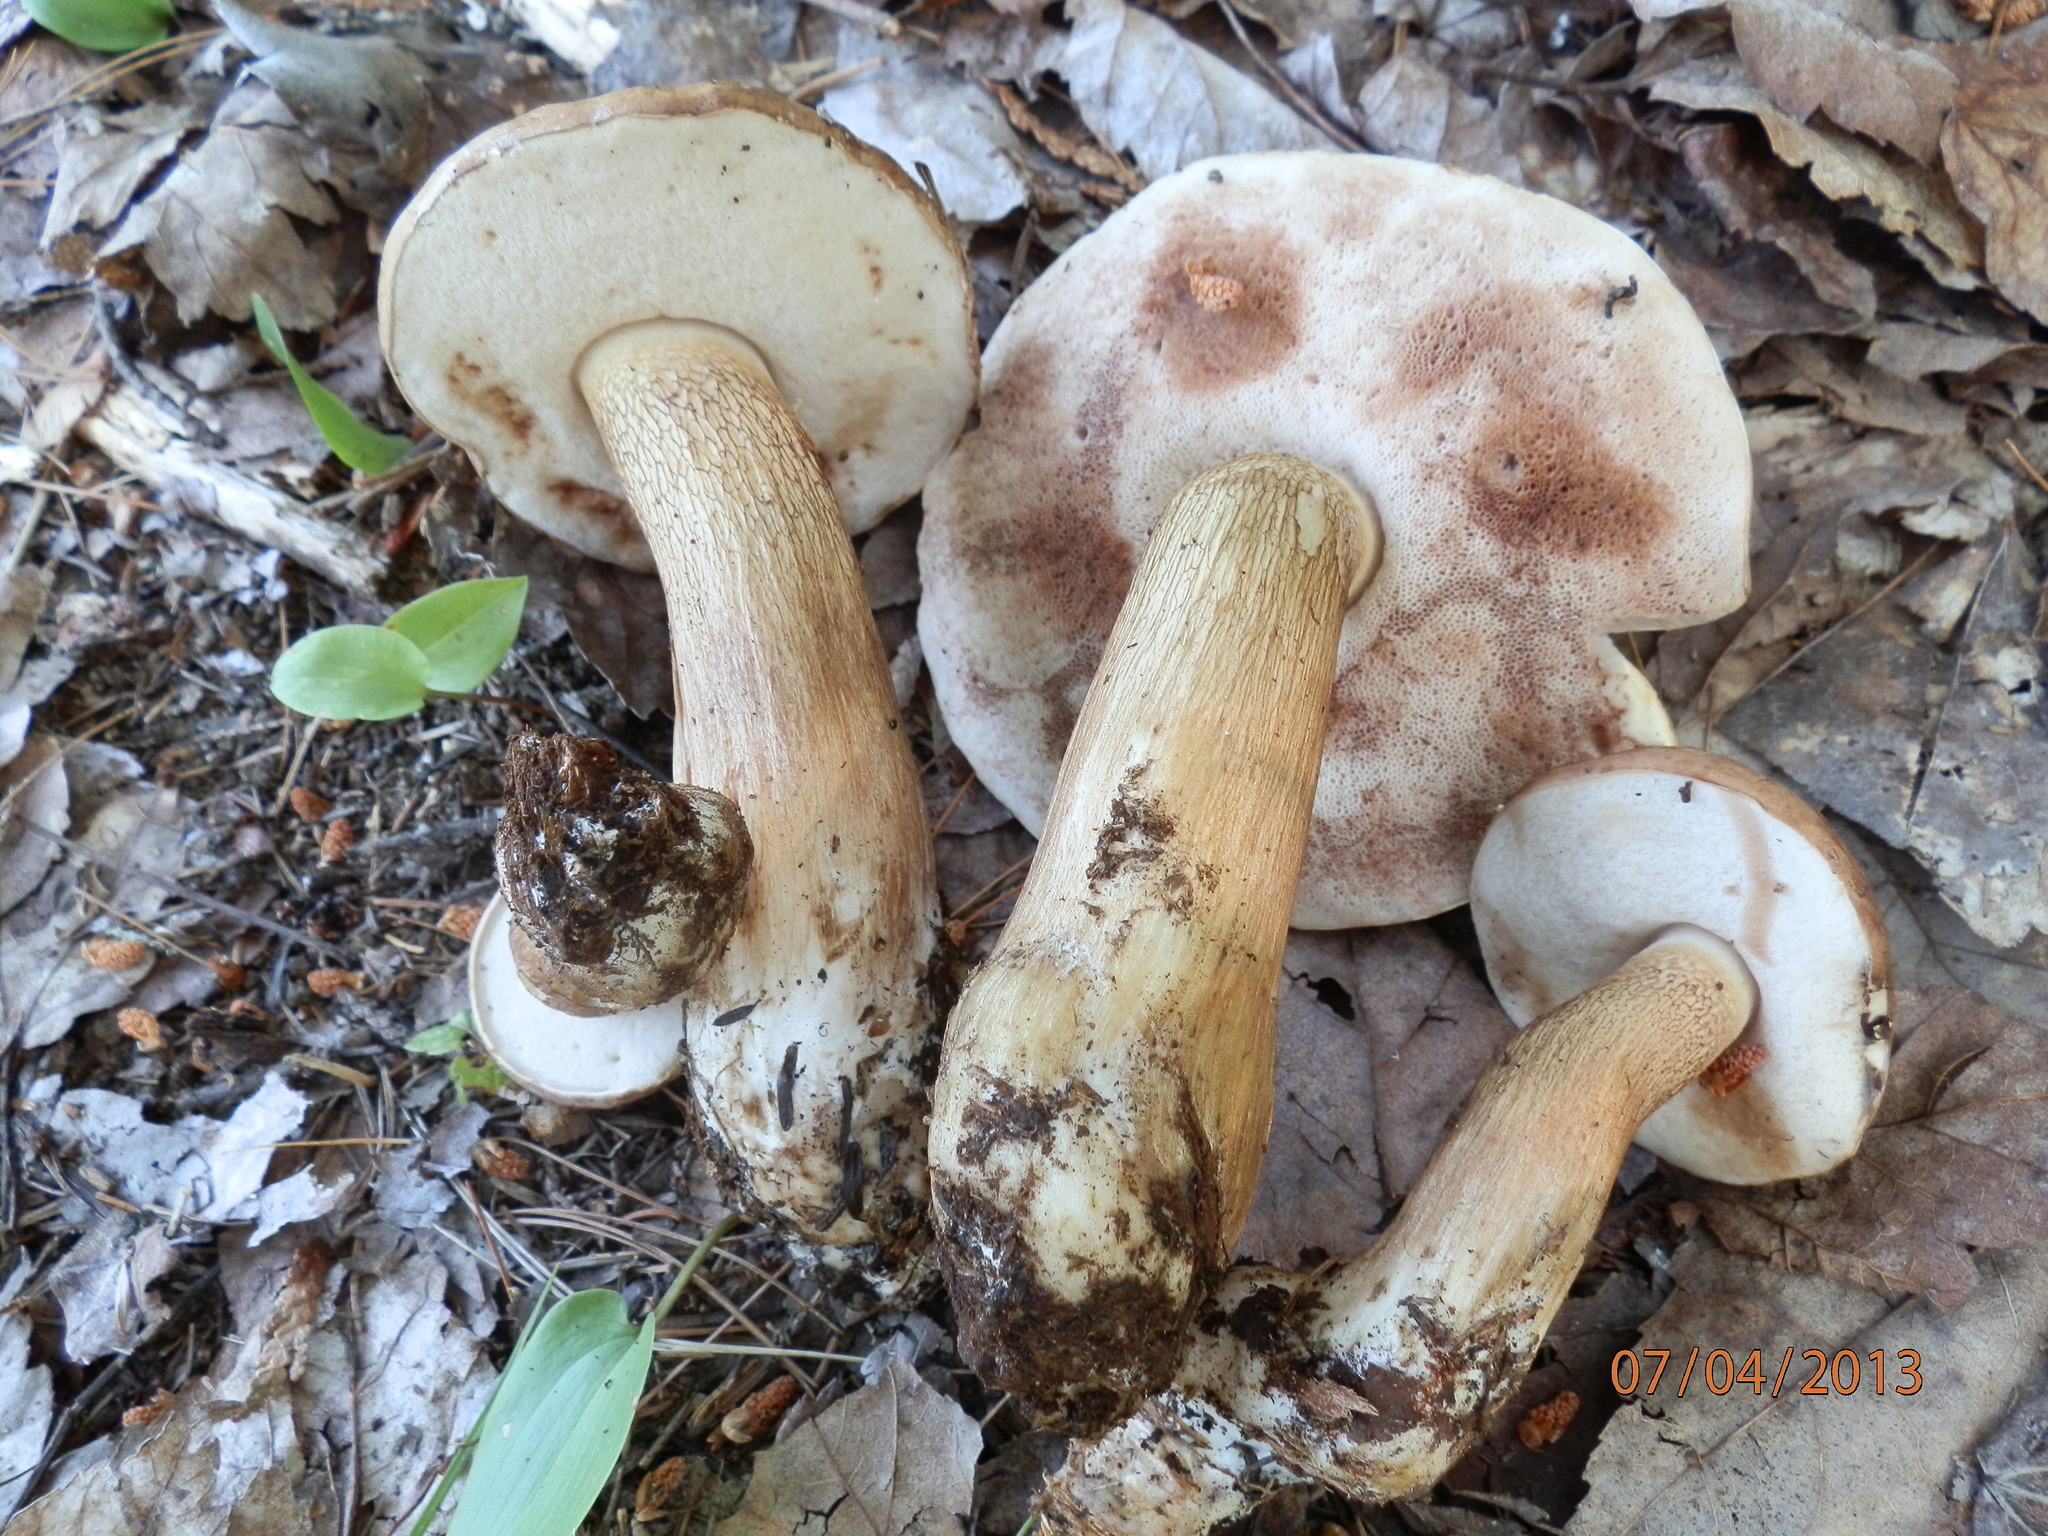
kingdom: Fungi
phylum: Basidiomycota
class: Agaricomycetes
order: Boletales
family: Boletaceae
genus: Tylopilus
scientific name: Tylopilus felleus
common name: Bitter bolete
